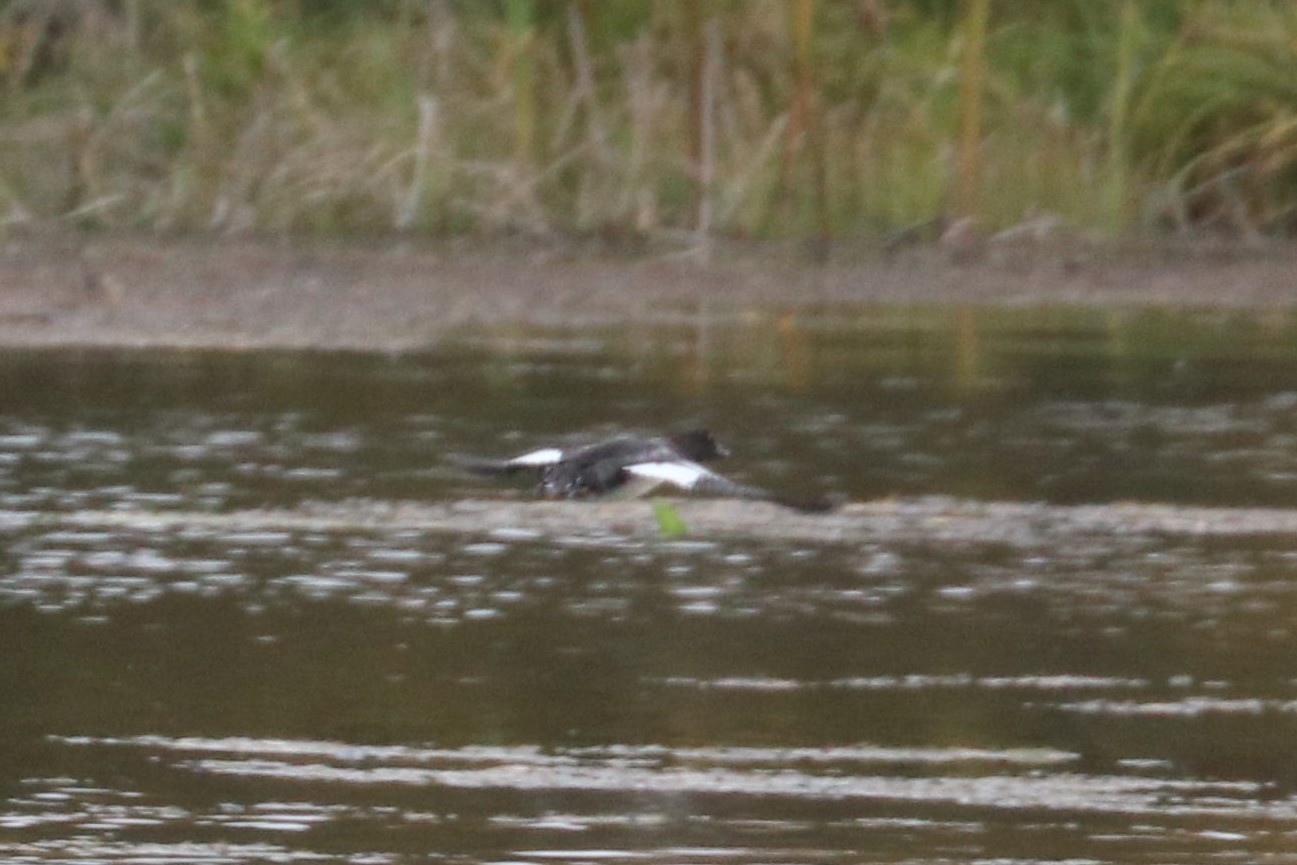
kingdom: Animalia
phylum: Chordata
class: Aves
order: Anseriformes
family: Anatidae
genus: Bucephala
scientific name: Bucephala clangula
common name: Common goldeneye
